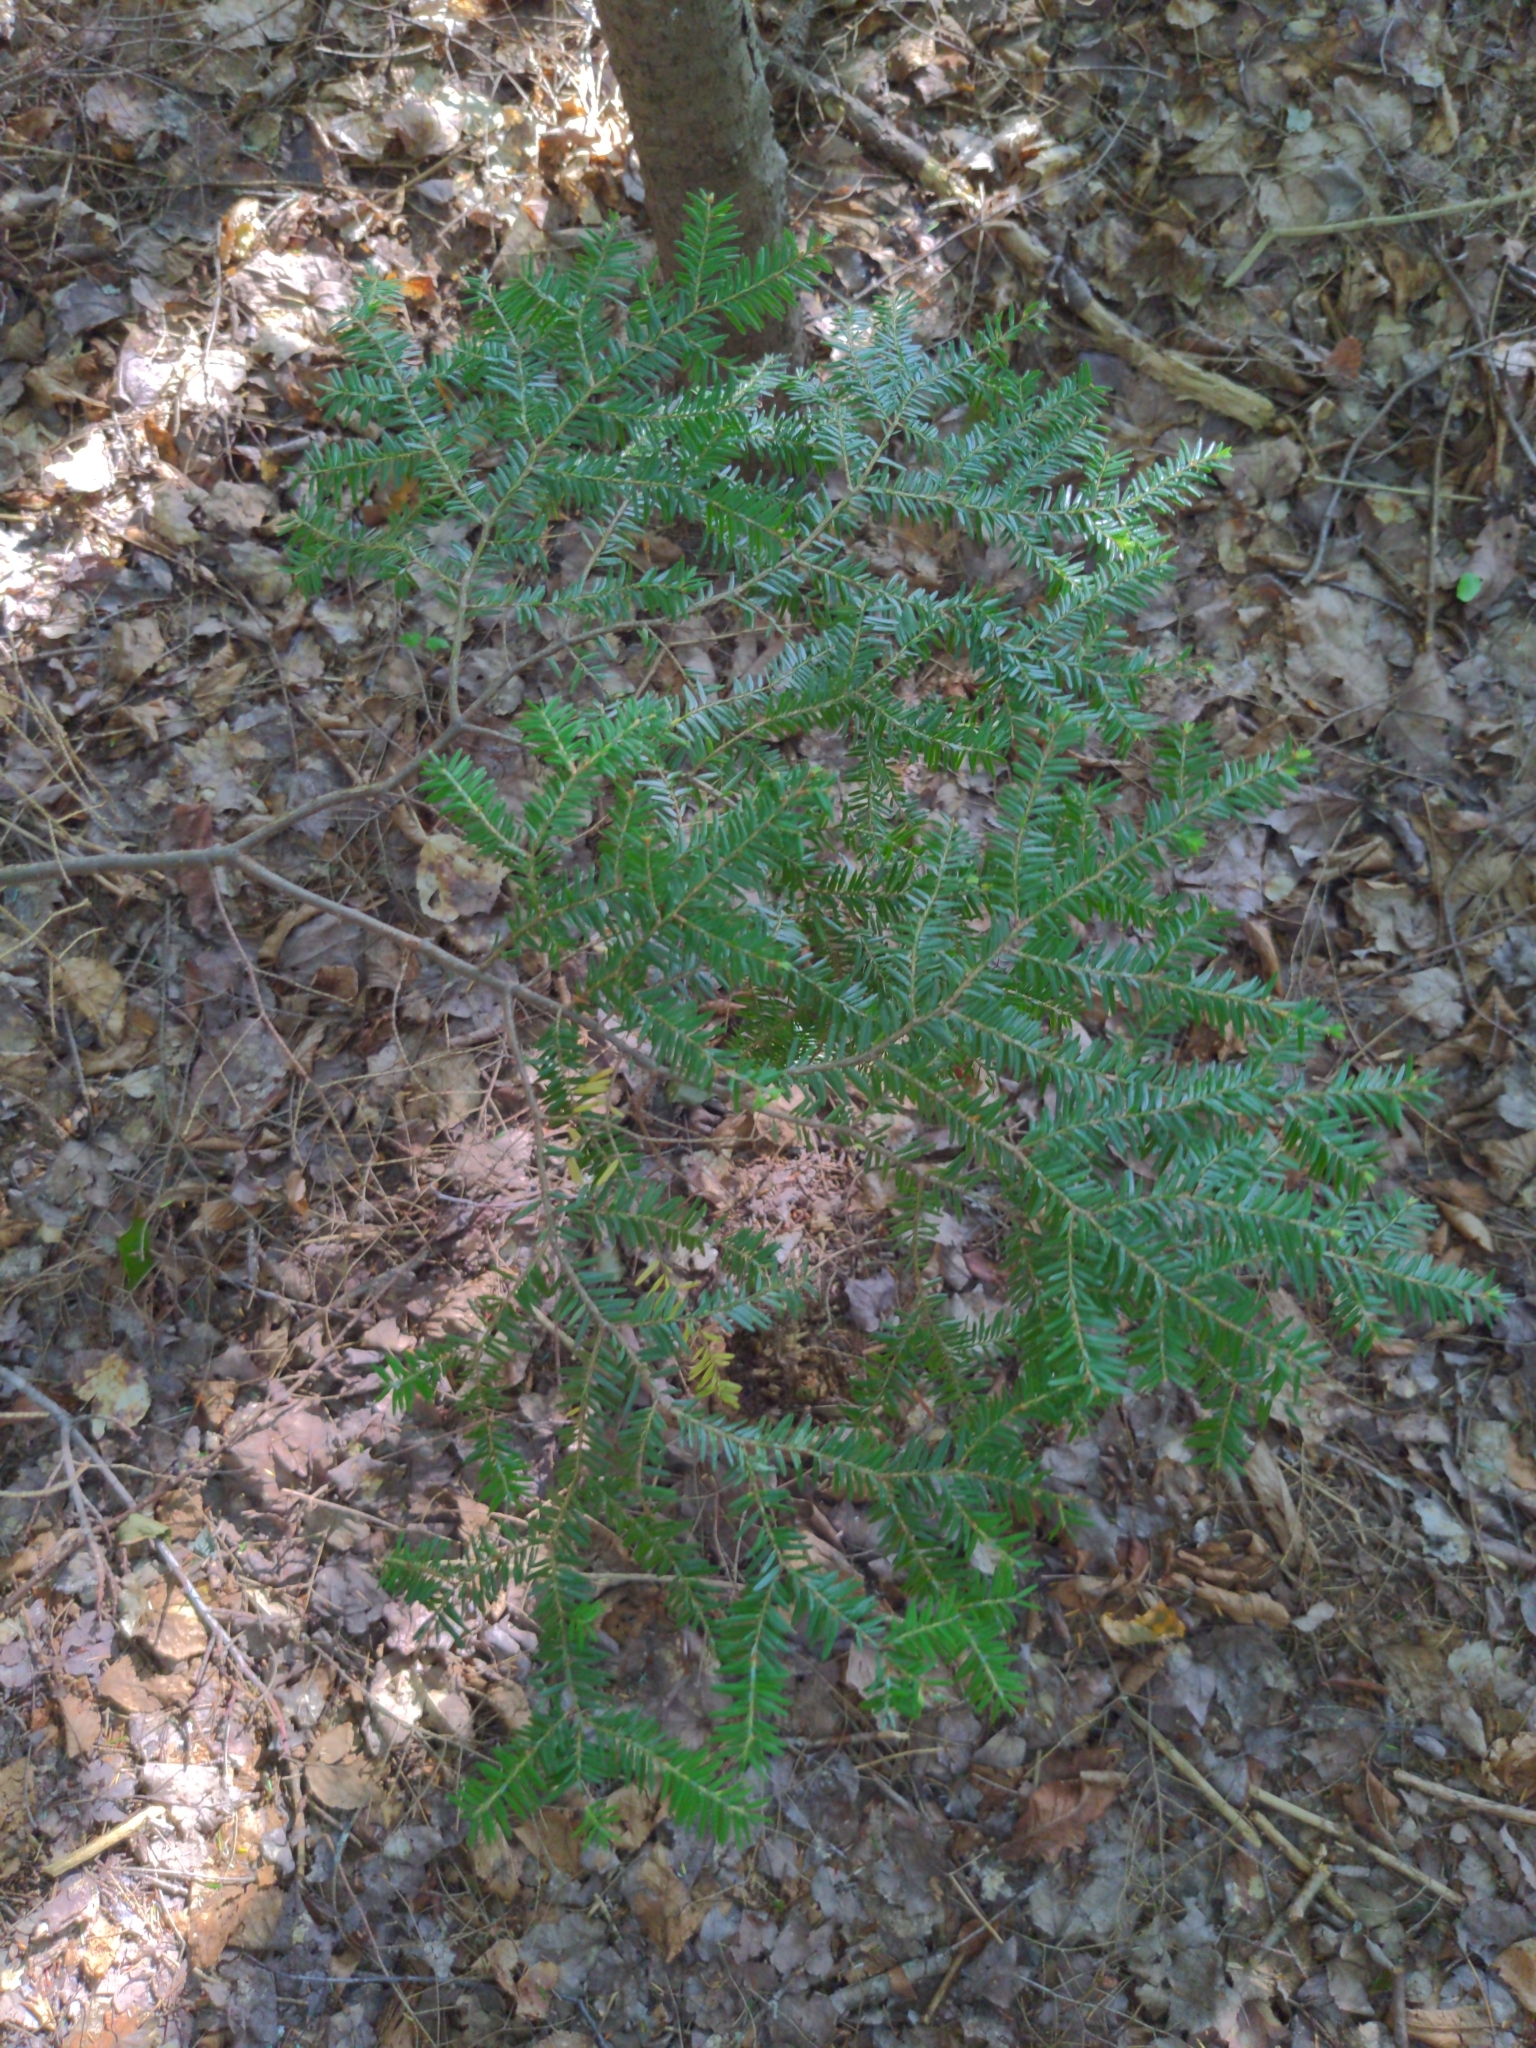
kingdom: Plantae
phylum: Tracheophyta
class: Pinopsida
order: Pinales
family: Pinaceae
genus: Tsuga
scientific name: Tsuga canadensis
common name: Eastern hemlock
